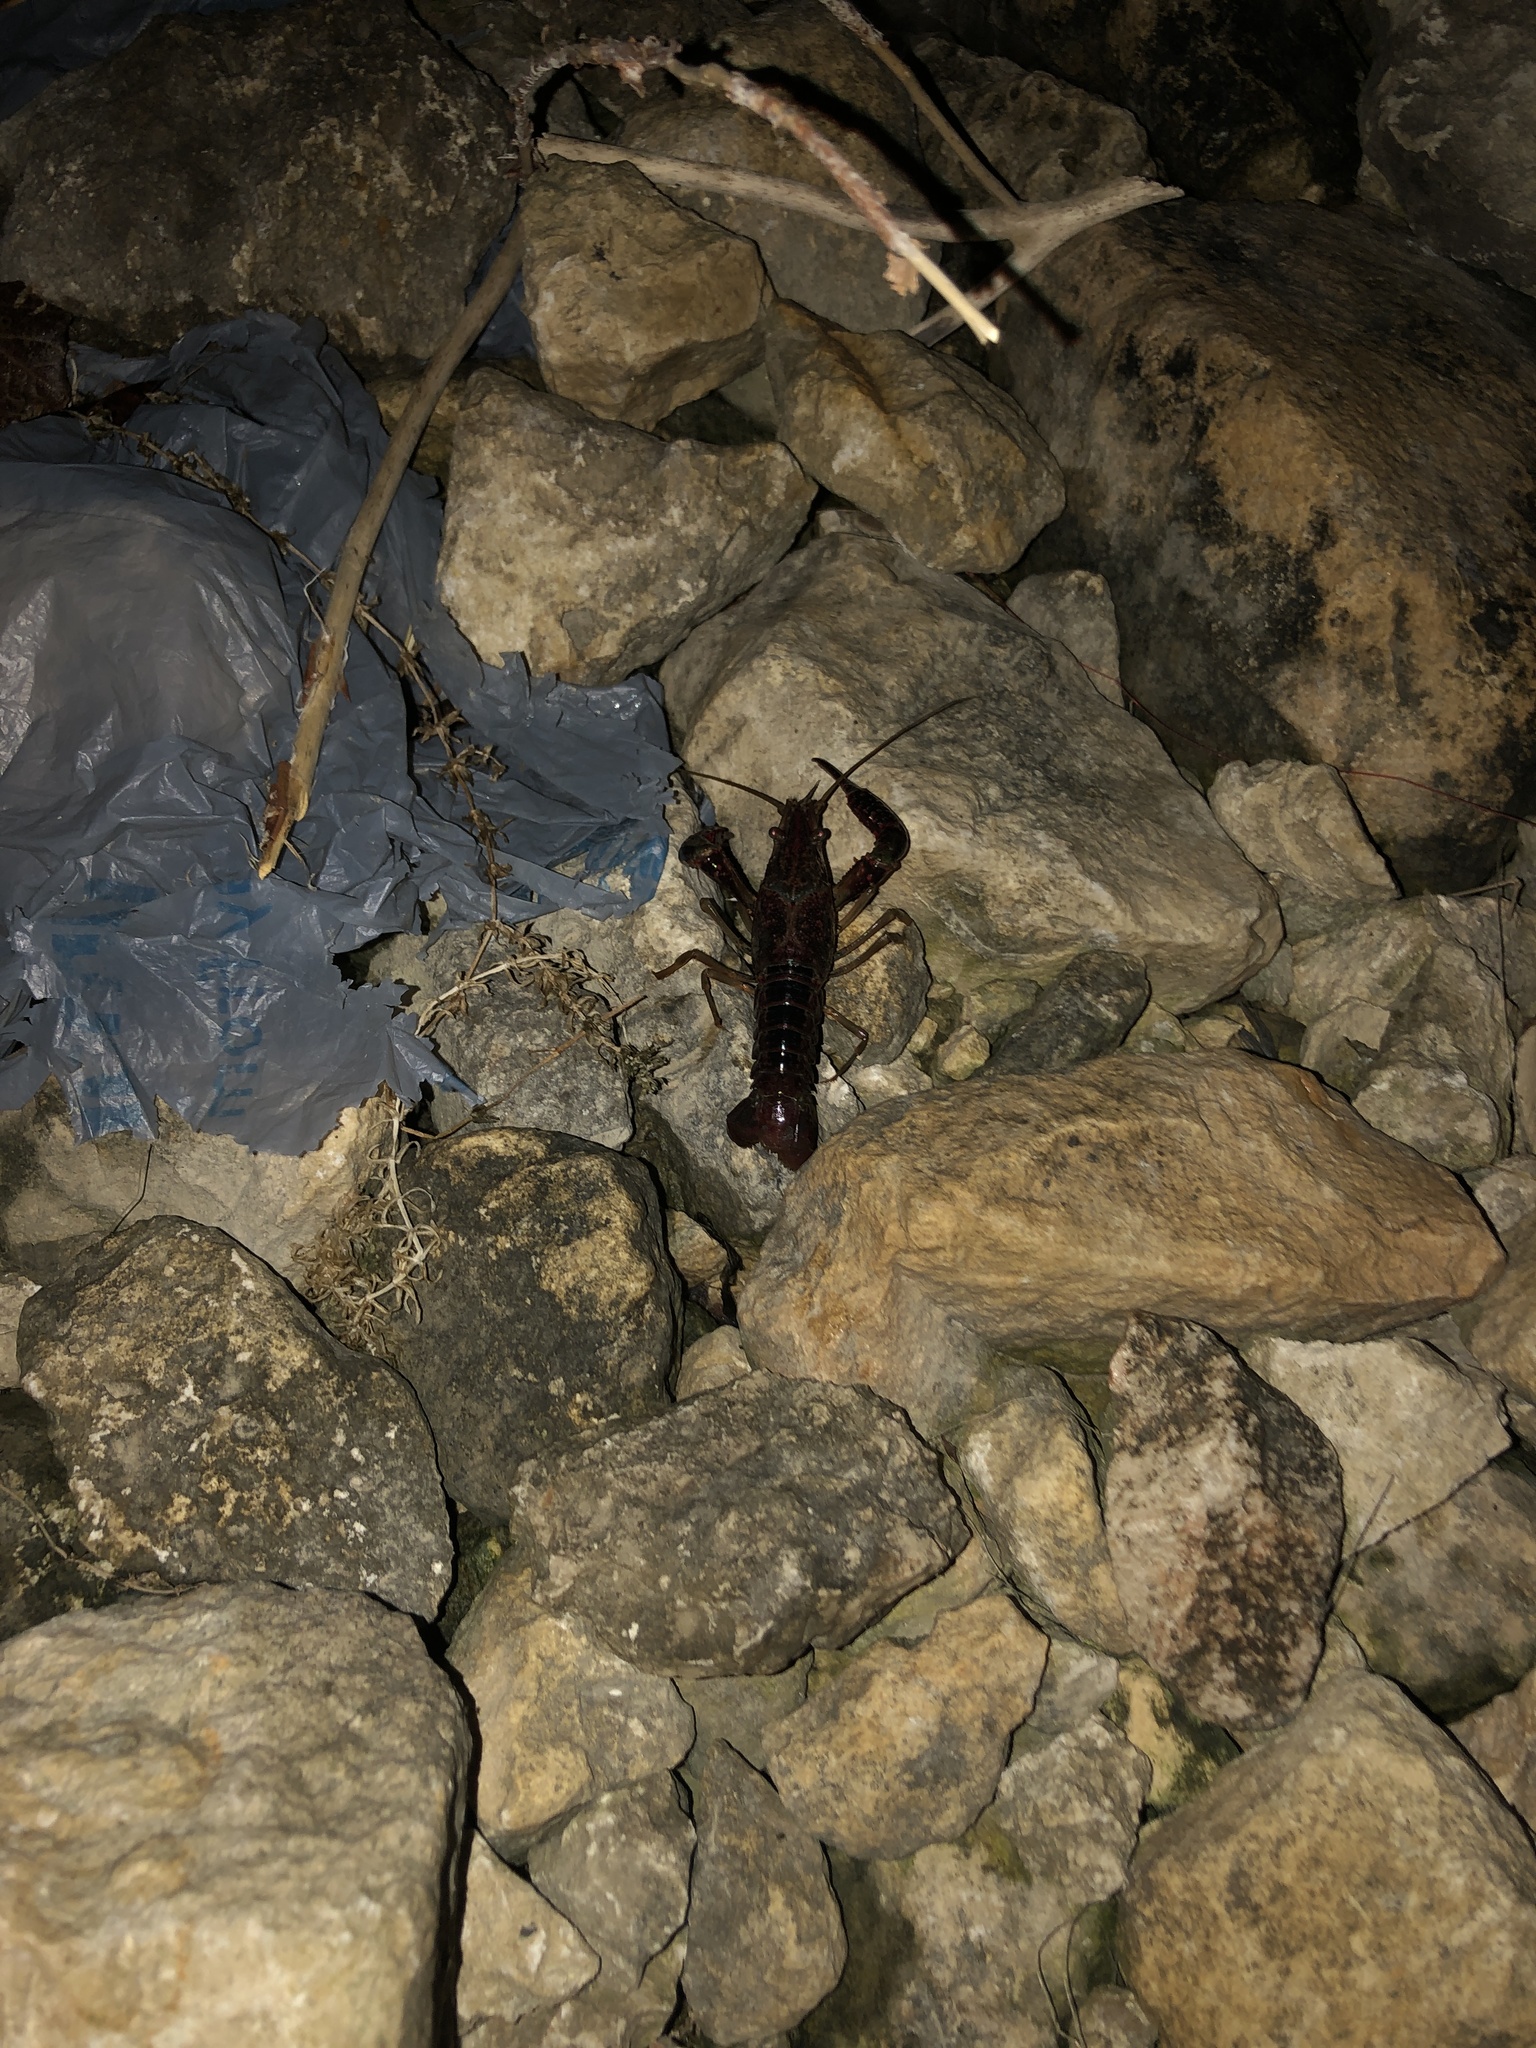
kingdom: Animalia
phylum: Arthropoda
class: Malacostraca
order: Decapoda
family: Cambaridae
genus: Procambarus
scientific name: Procambarus clarkii
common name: Red swamp crayfish
